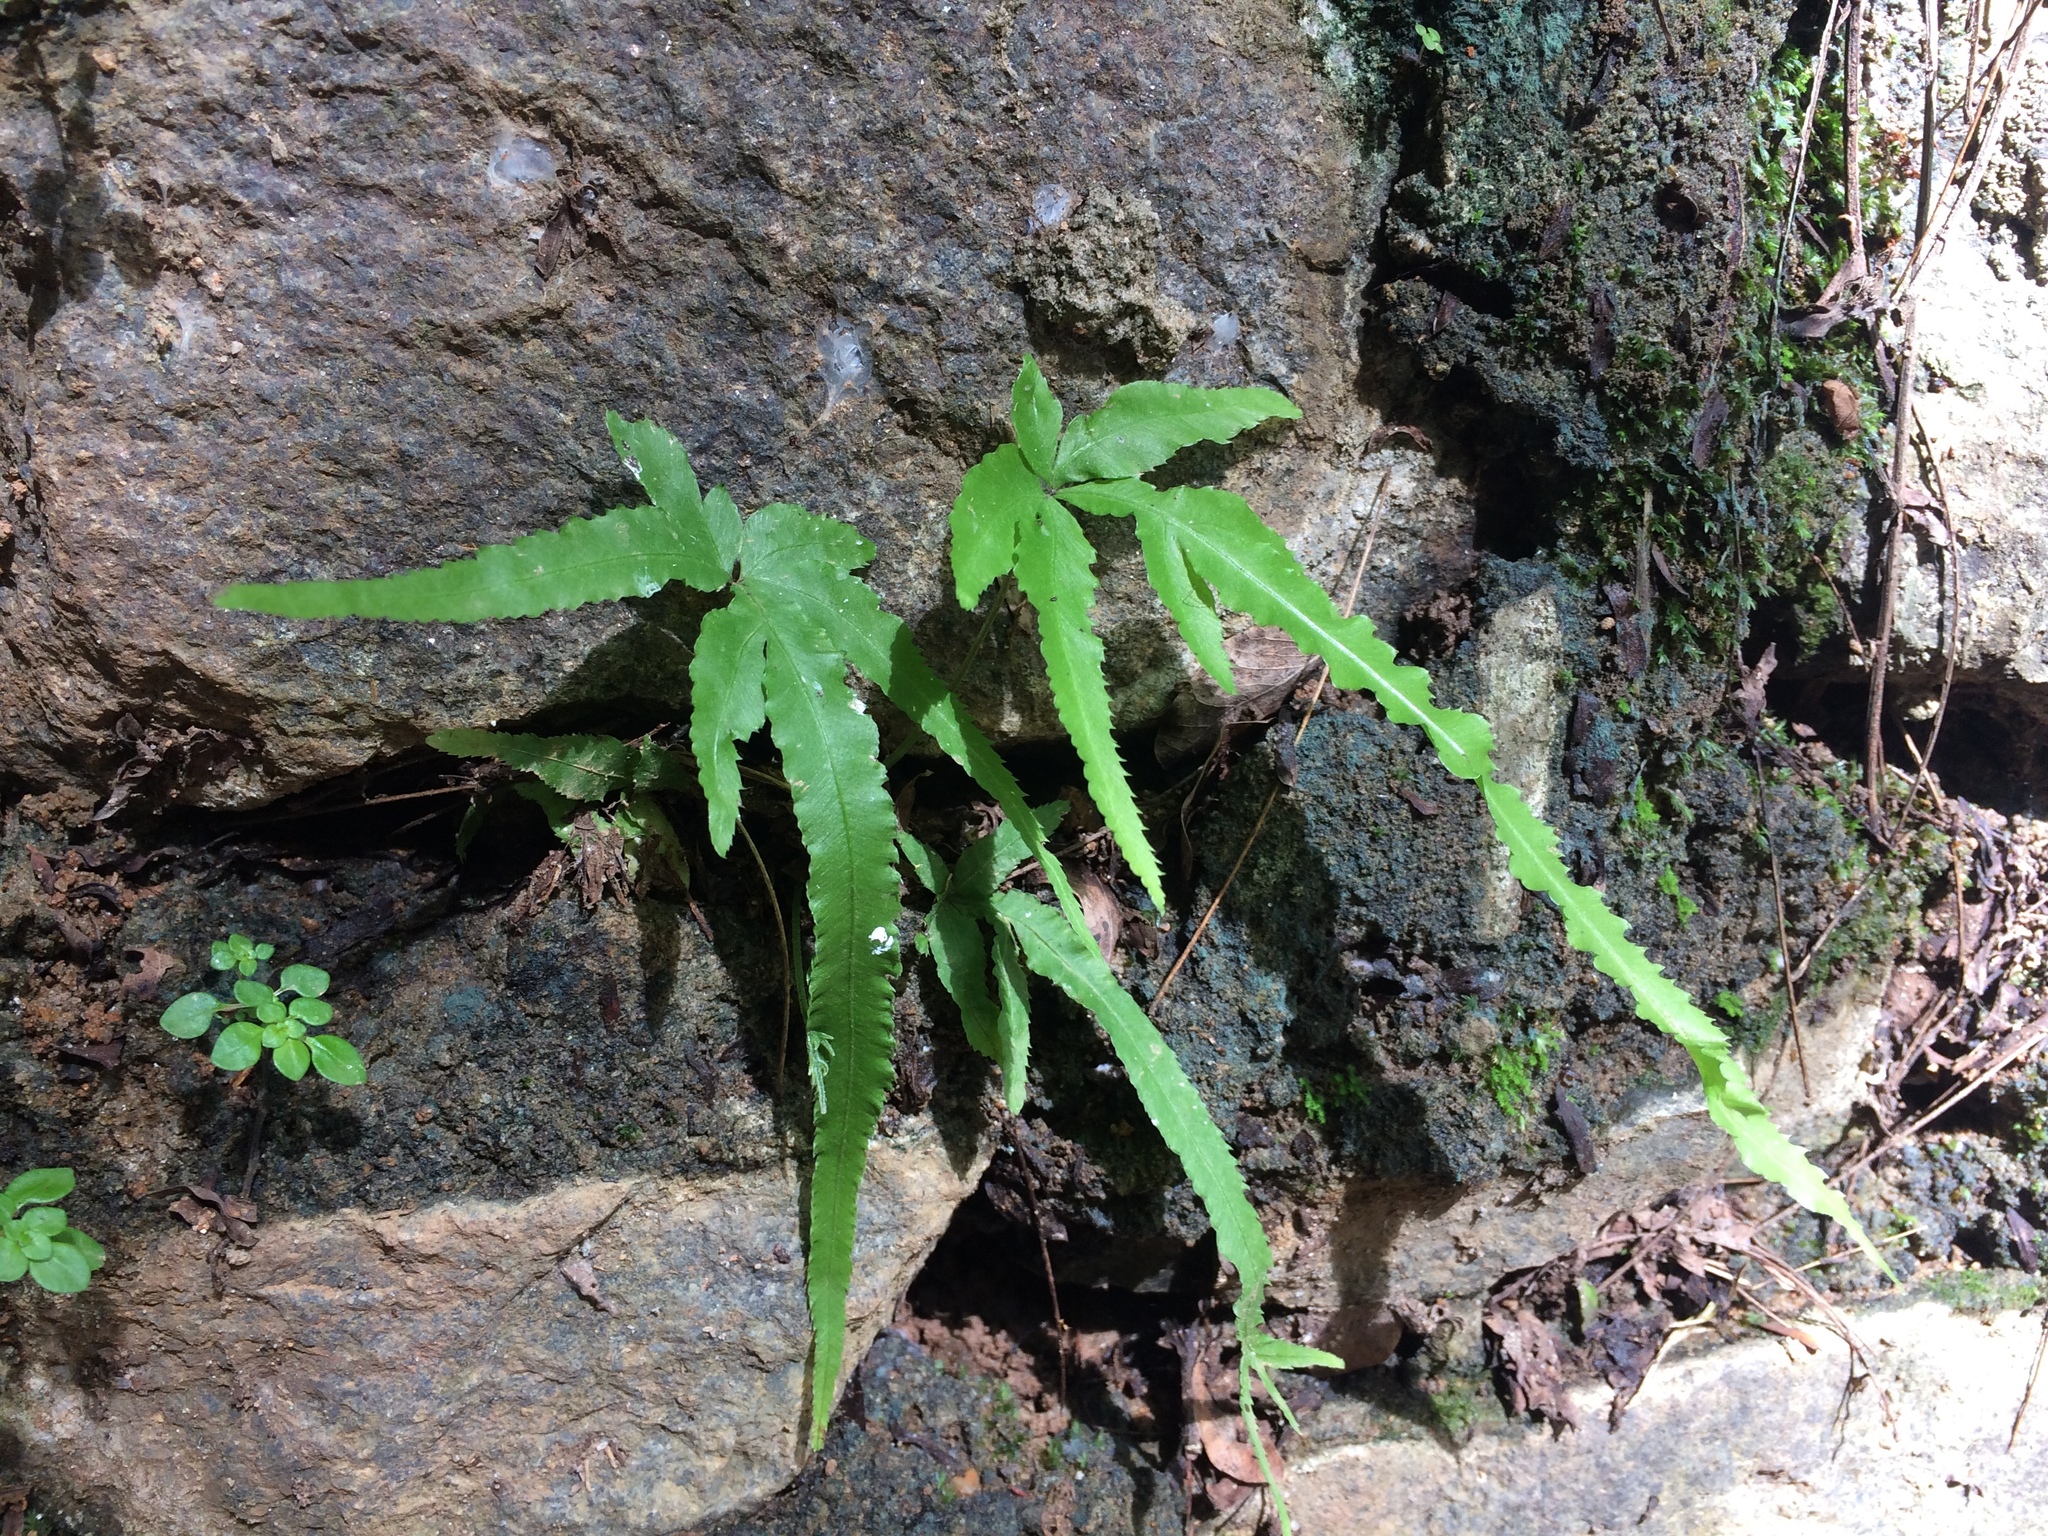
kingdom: Plantae
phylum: Tracheophyta
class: Polypodiopsida
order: Polypodiales
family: Pteridaceae
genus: Pteris
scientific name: Pteris multifida
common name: Spider brake
